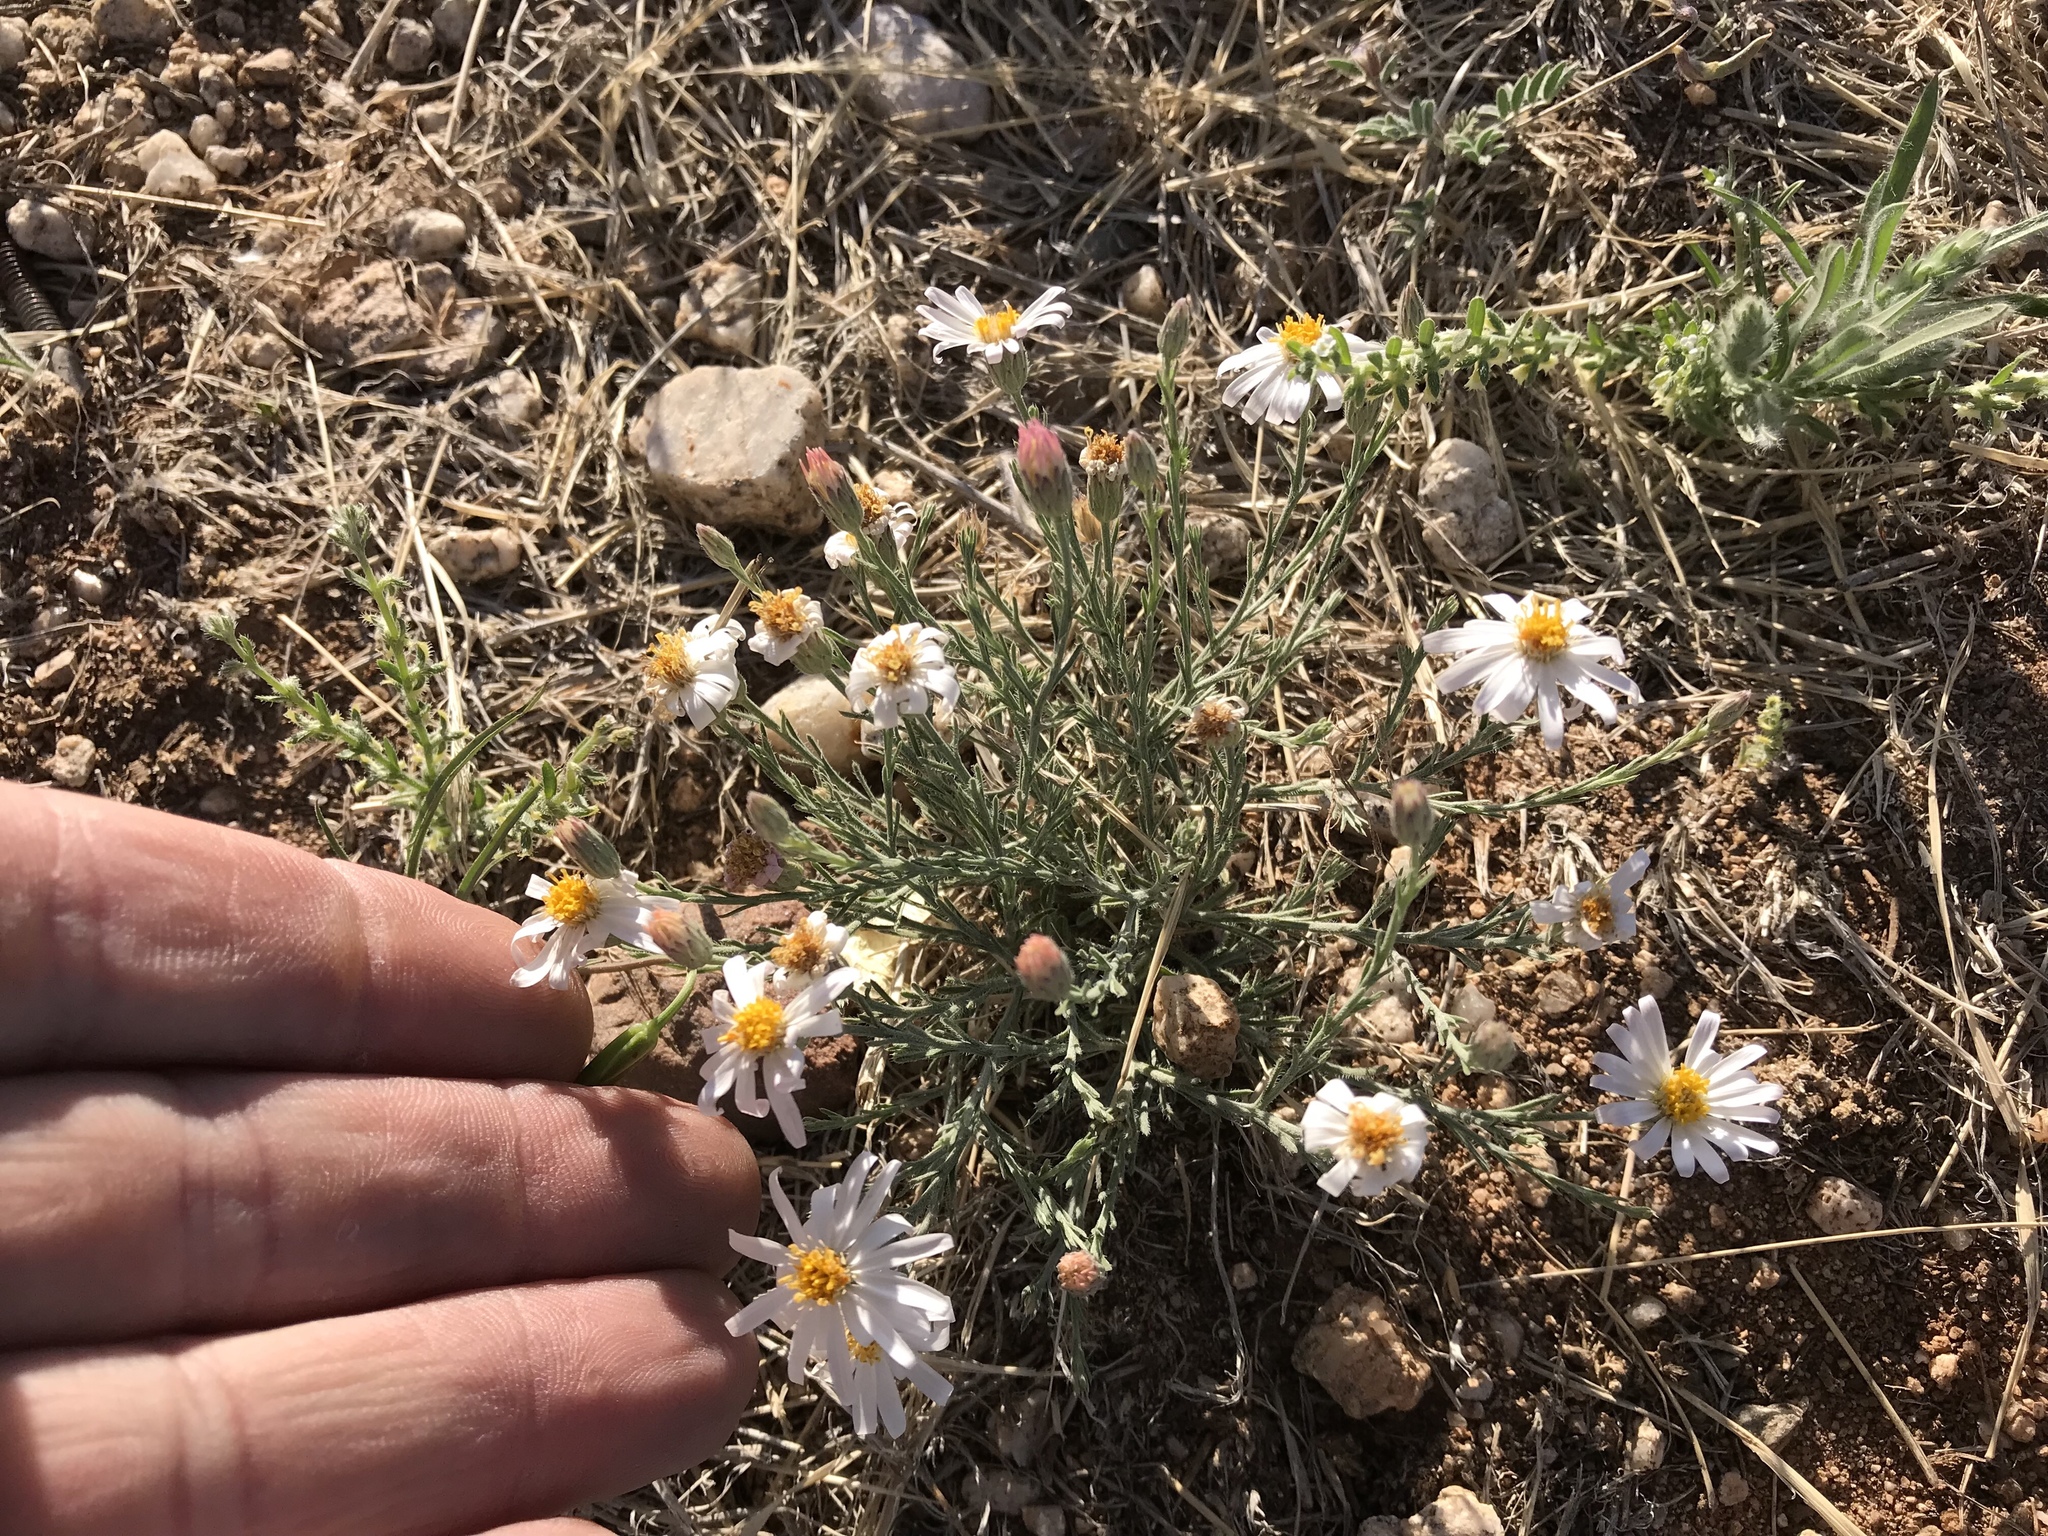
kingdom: Plantae
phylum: Tracheophyta
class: Magnoliopsida
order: Asterales
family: Asteraceae
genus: Chaetopappa
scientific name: Chaetopappa ericoides
